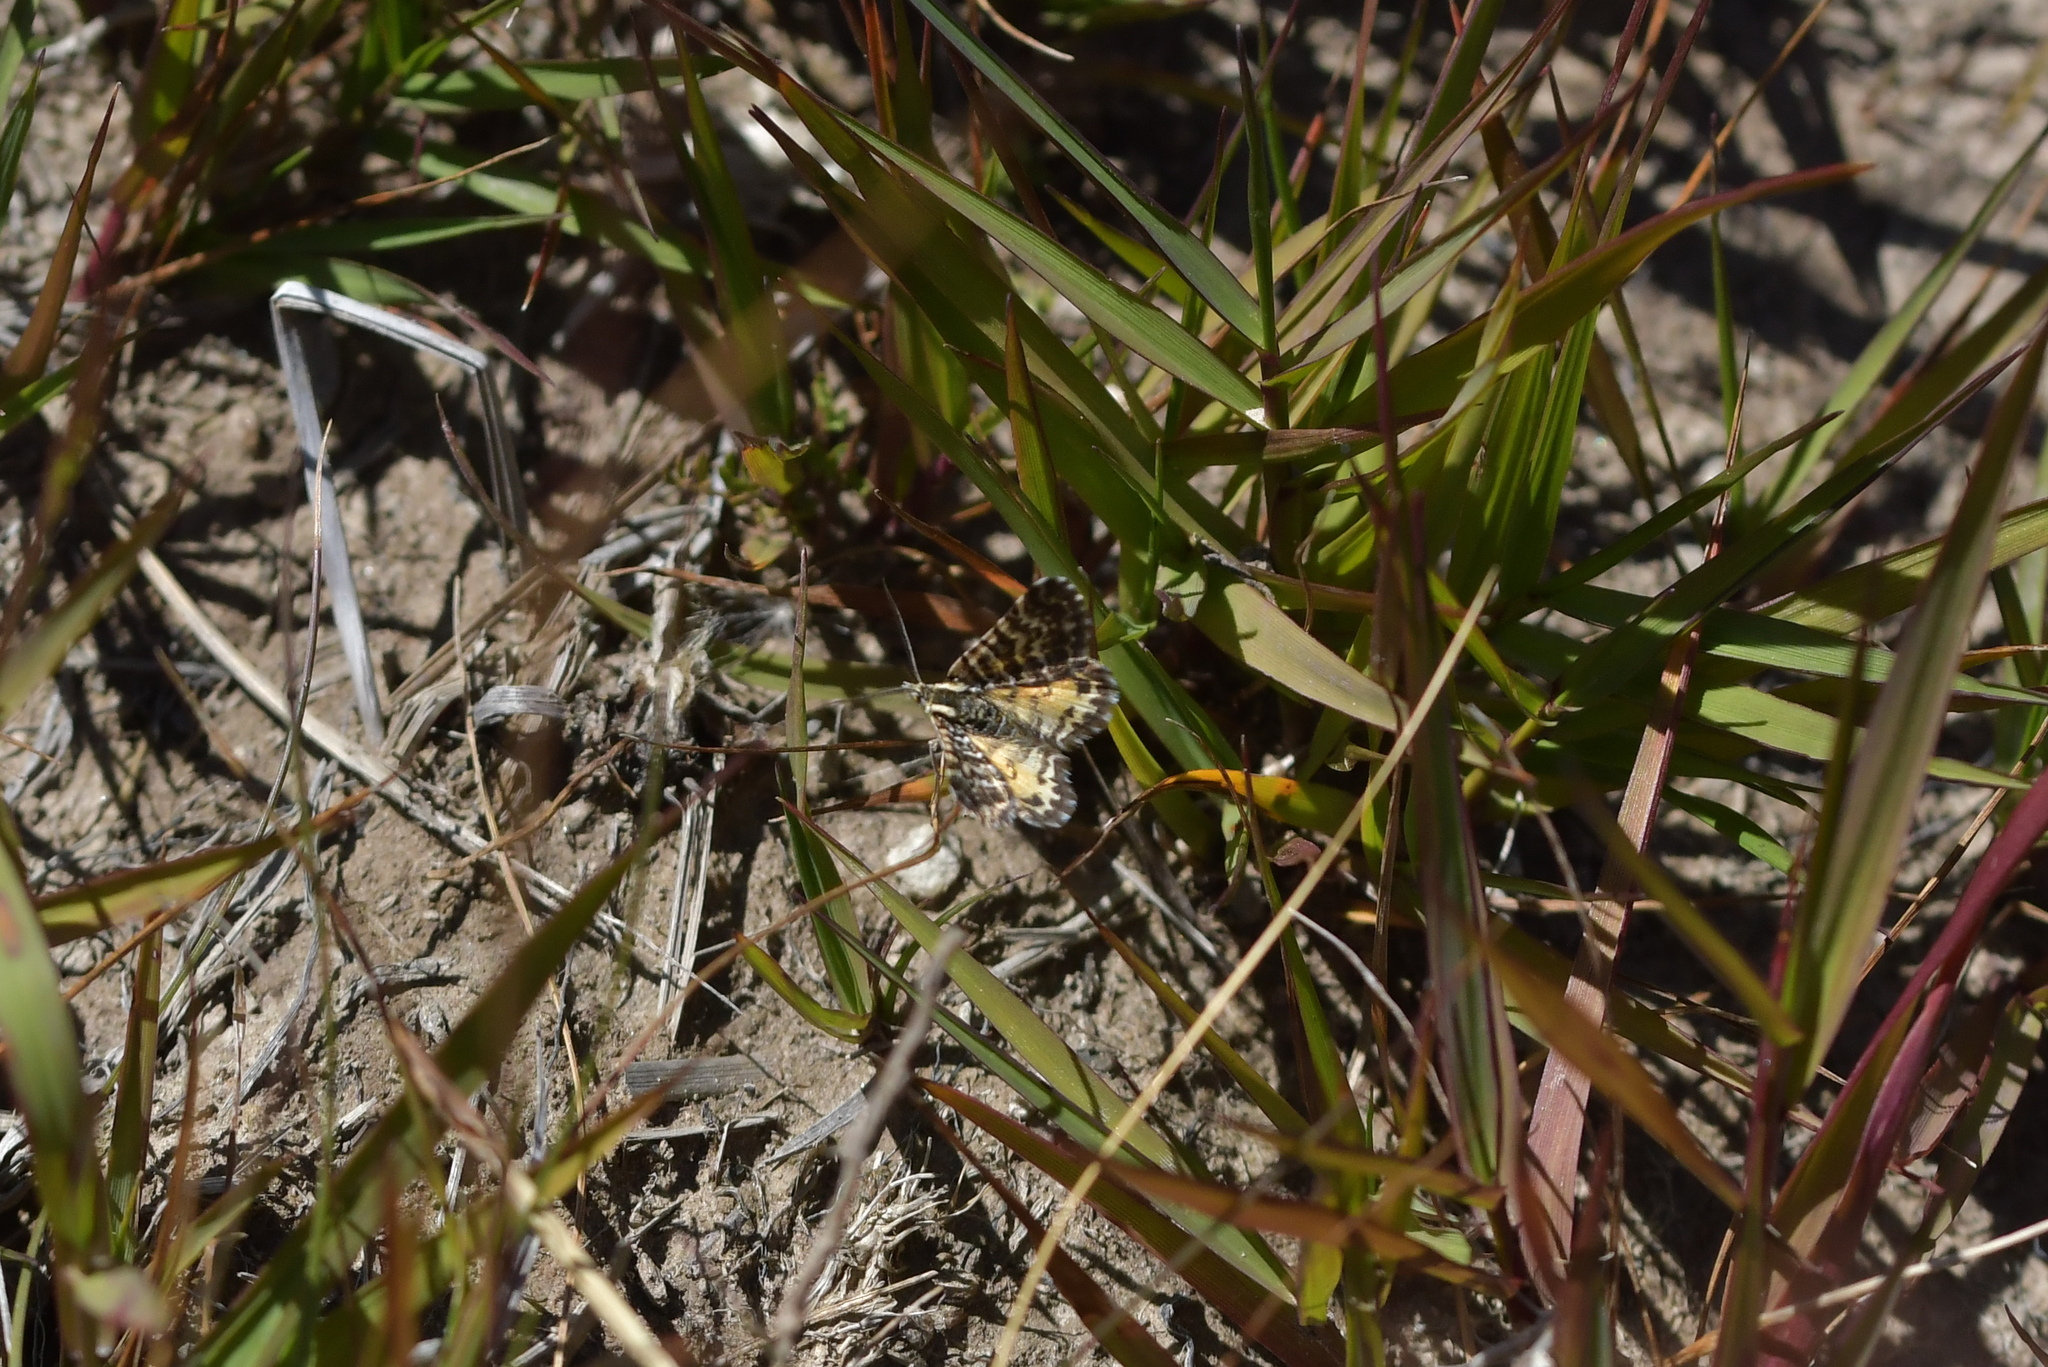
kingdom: Animalia
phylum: Arthropoda
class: Insecta
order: Lepidoptera
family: Geometridae
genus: Notoreas
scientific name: Notoreas
